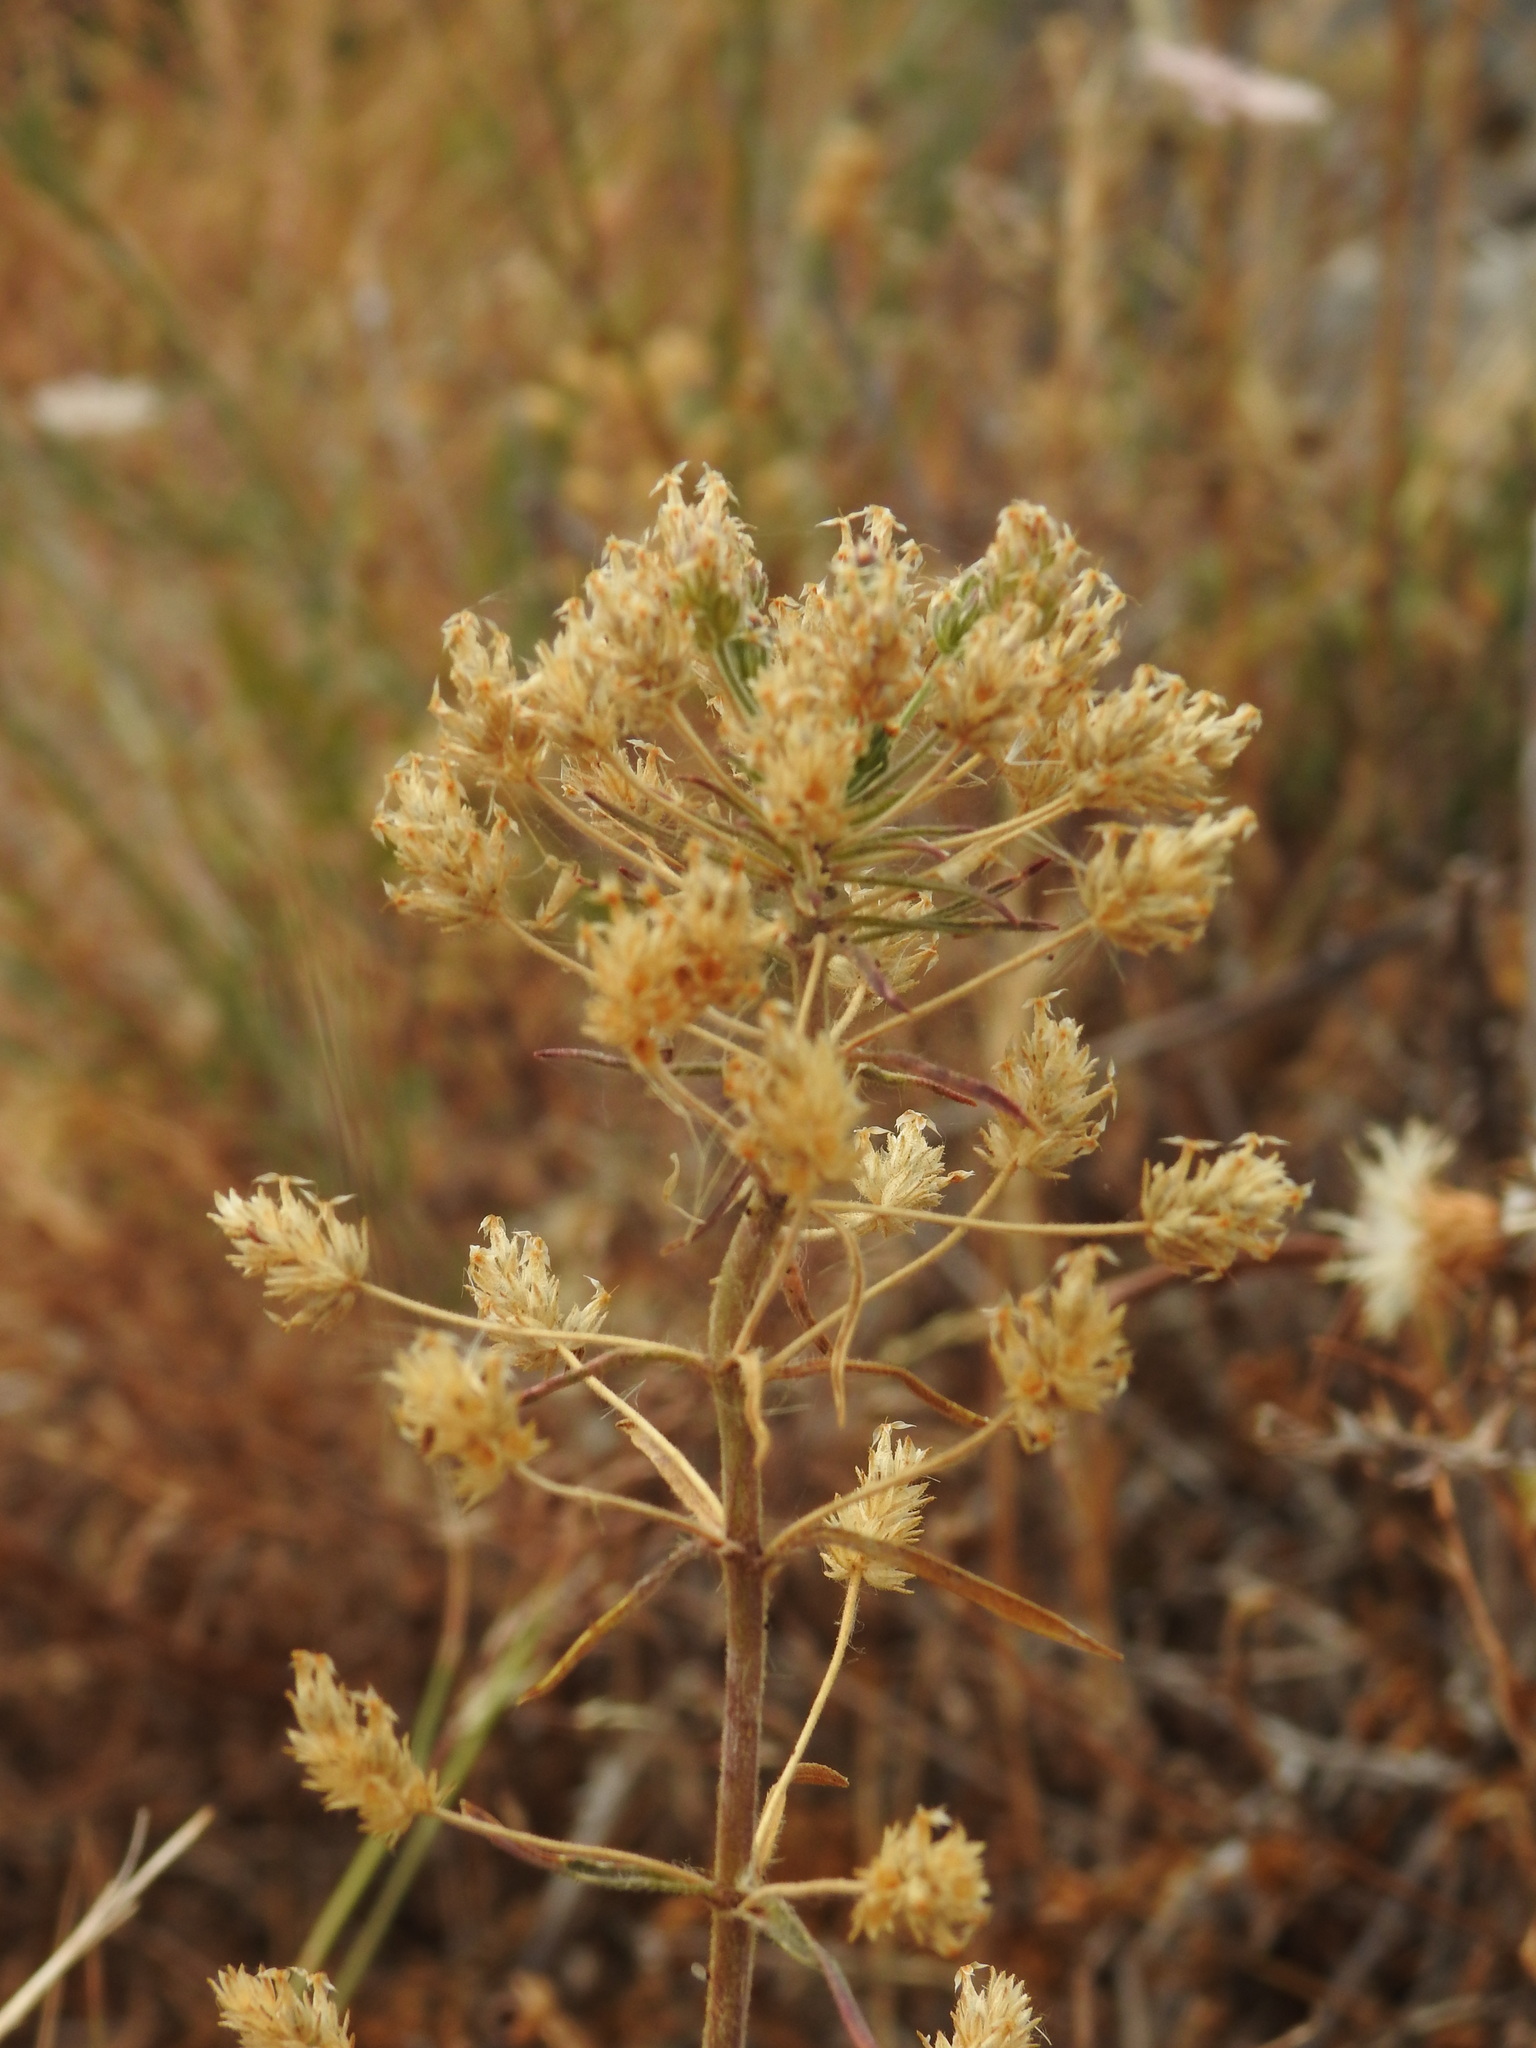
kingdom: Plantae
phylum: Tracheophyta
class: Magnoliopsida
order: Lamiales
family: Plantaginaceae
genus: Plantago
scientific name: Plantago afra
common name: Glandular plantain
